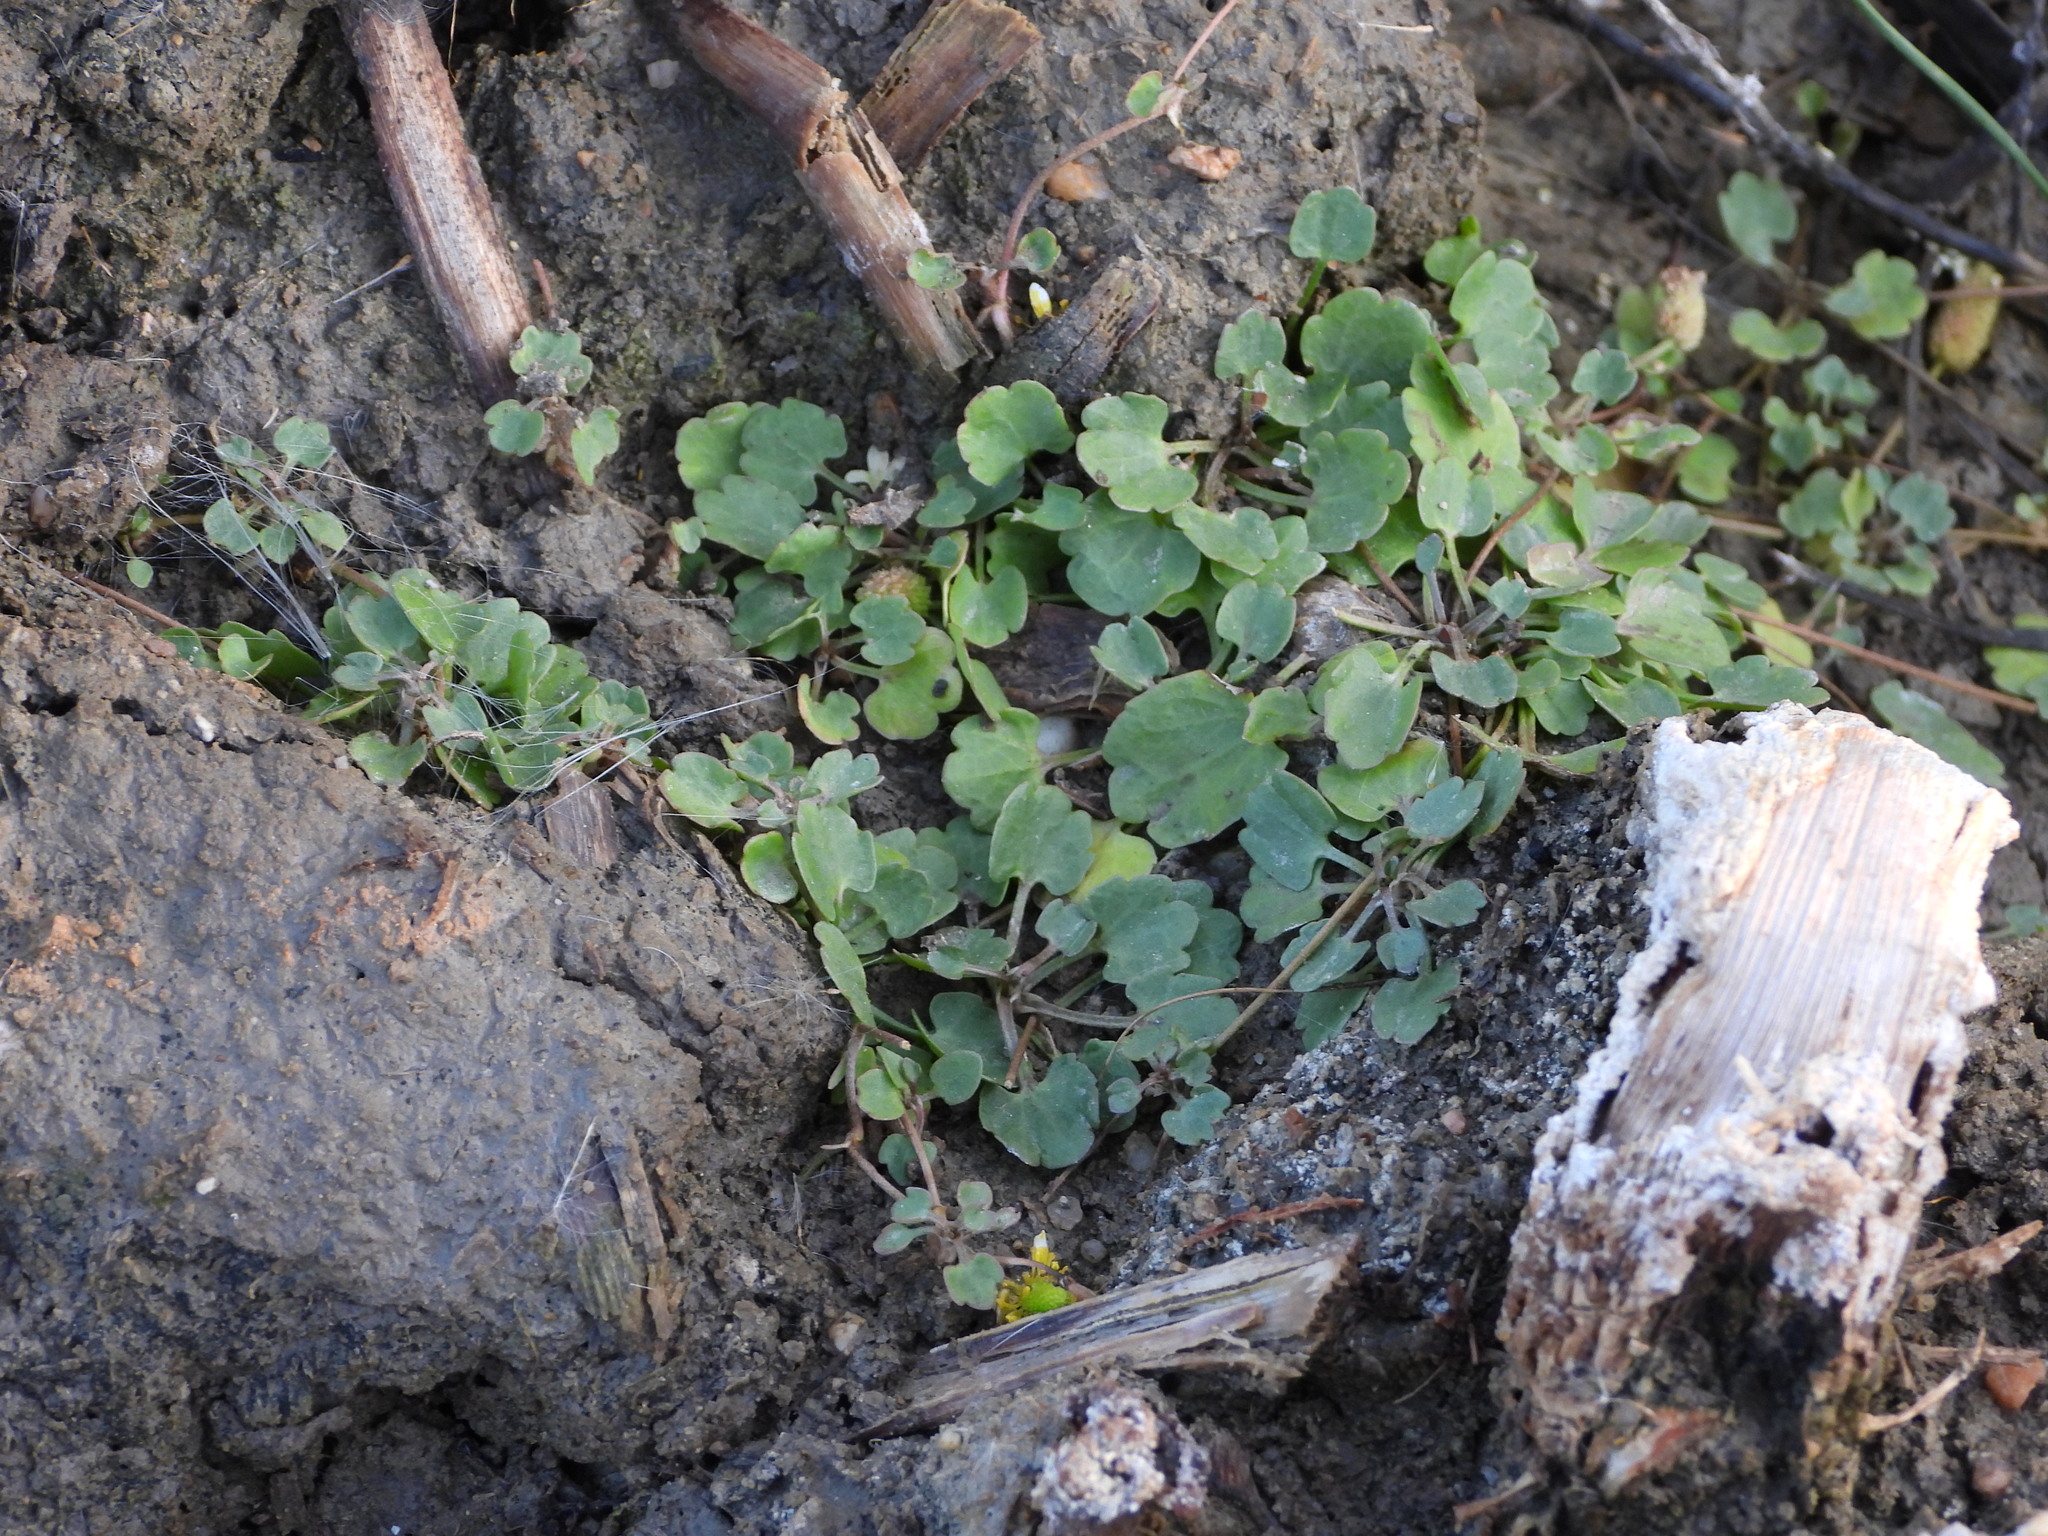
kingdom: Plantae
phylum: Tracheophyta
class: Magnoliopsida
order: Ranunculales
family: Ranunculaceae
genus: Halerpestes
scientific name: Halerpestes cymbalaria
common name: Seaside crowfoot
